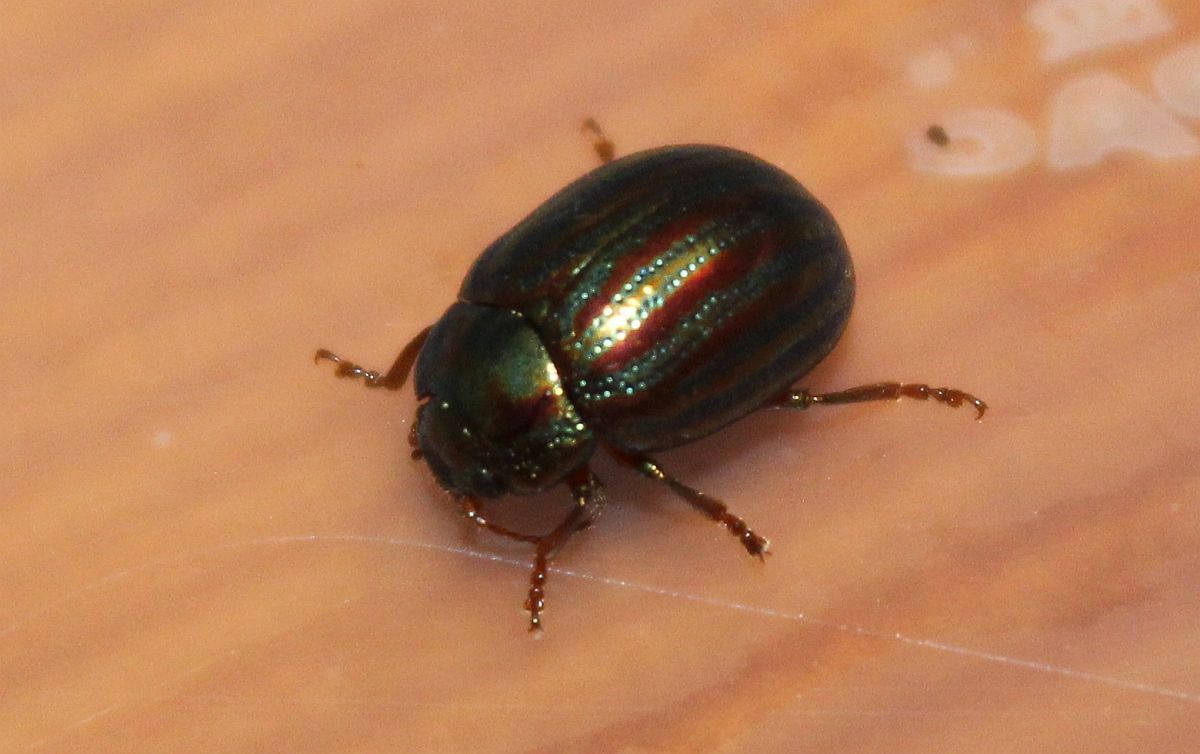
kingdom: Animalia
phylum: Arthropoda
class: Insecta
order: Coleoptera
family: Chrysomelidae
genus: Chrysolina
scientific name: Chrysolina americana
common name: Rosemary beetle
